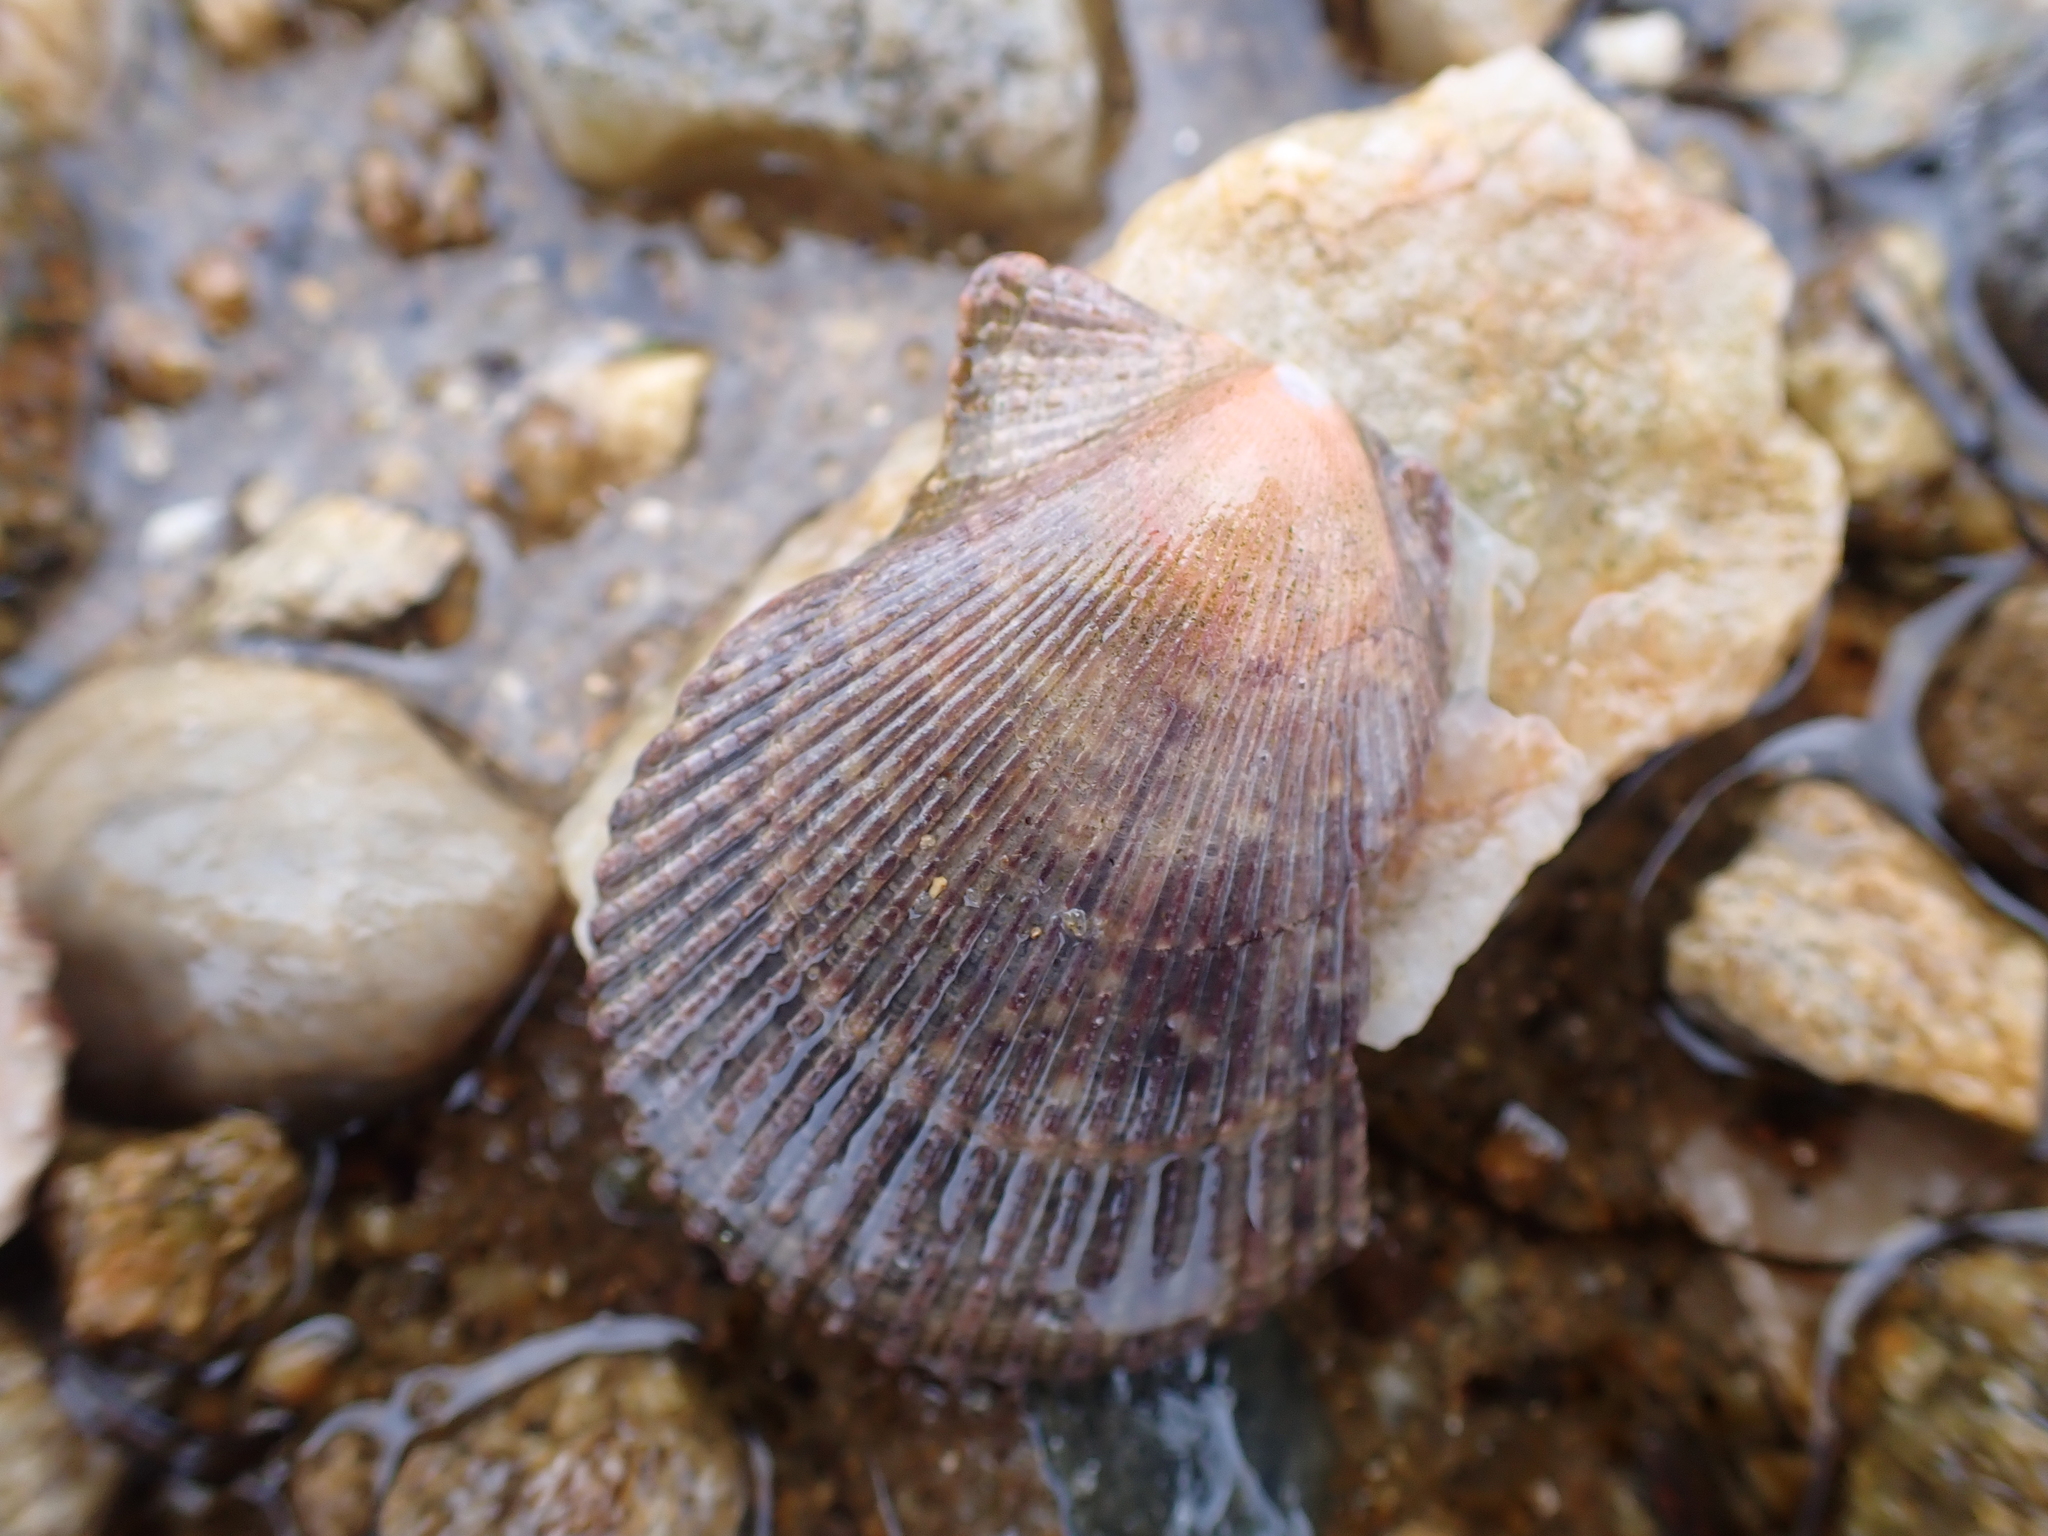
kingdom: Animalia
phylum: Mollusca
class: Bivalvia
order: Pectinida
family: Pectinidae
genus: Mimachlamys
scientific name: Mimachlamys varia
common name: Variegated scallop
